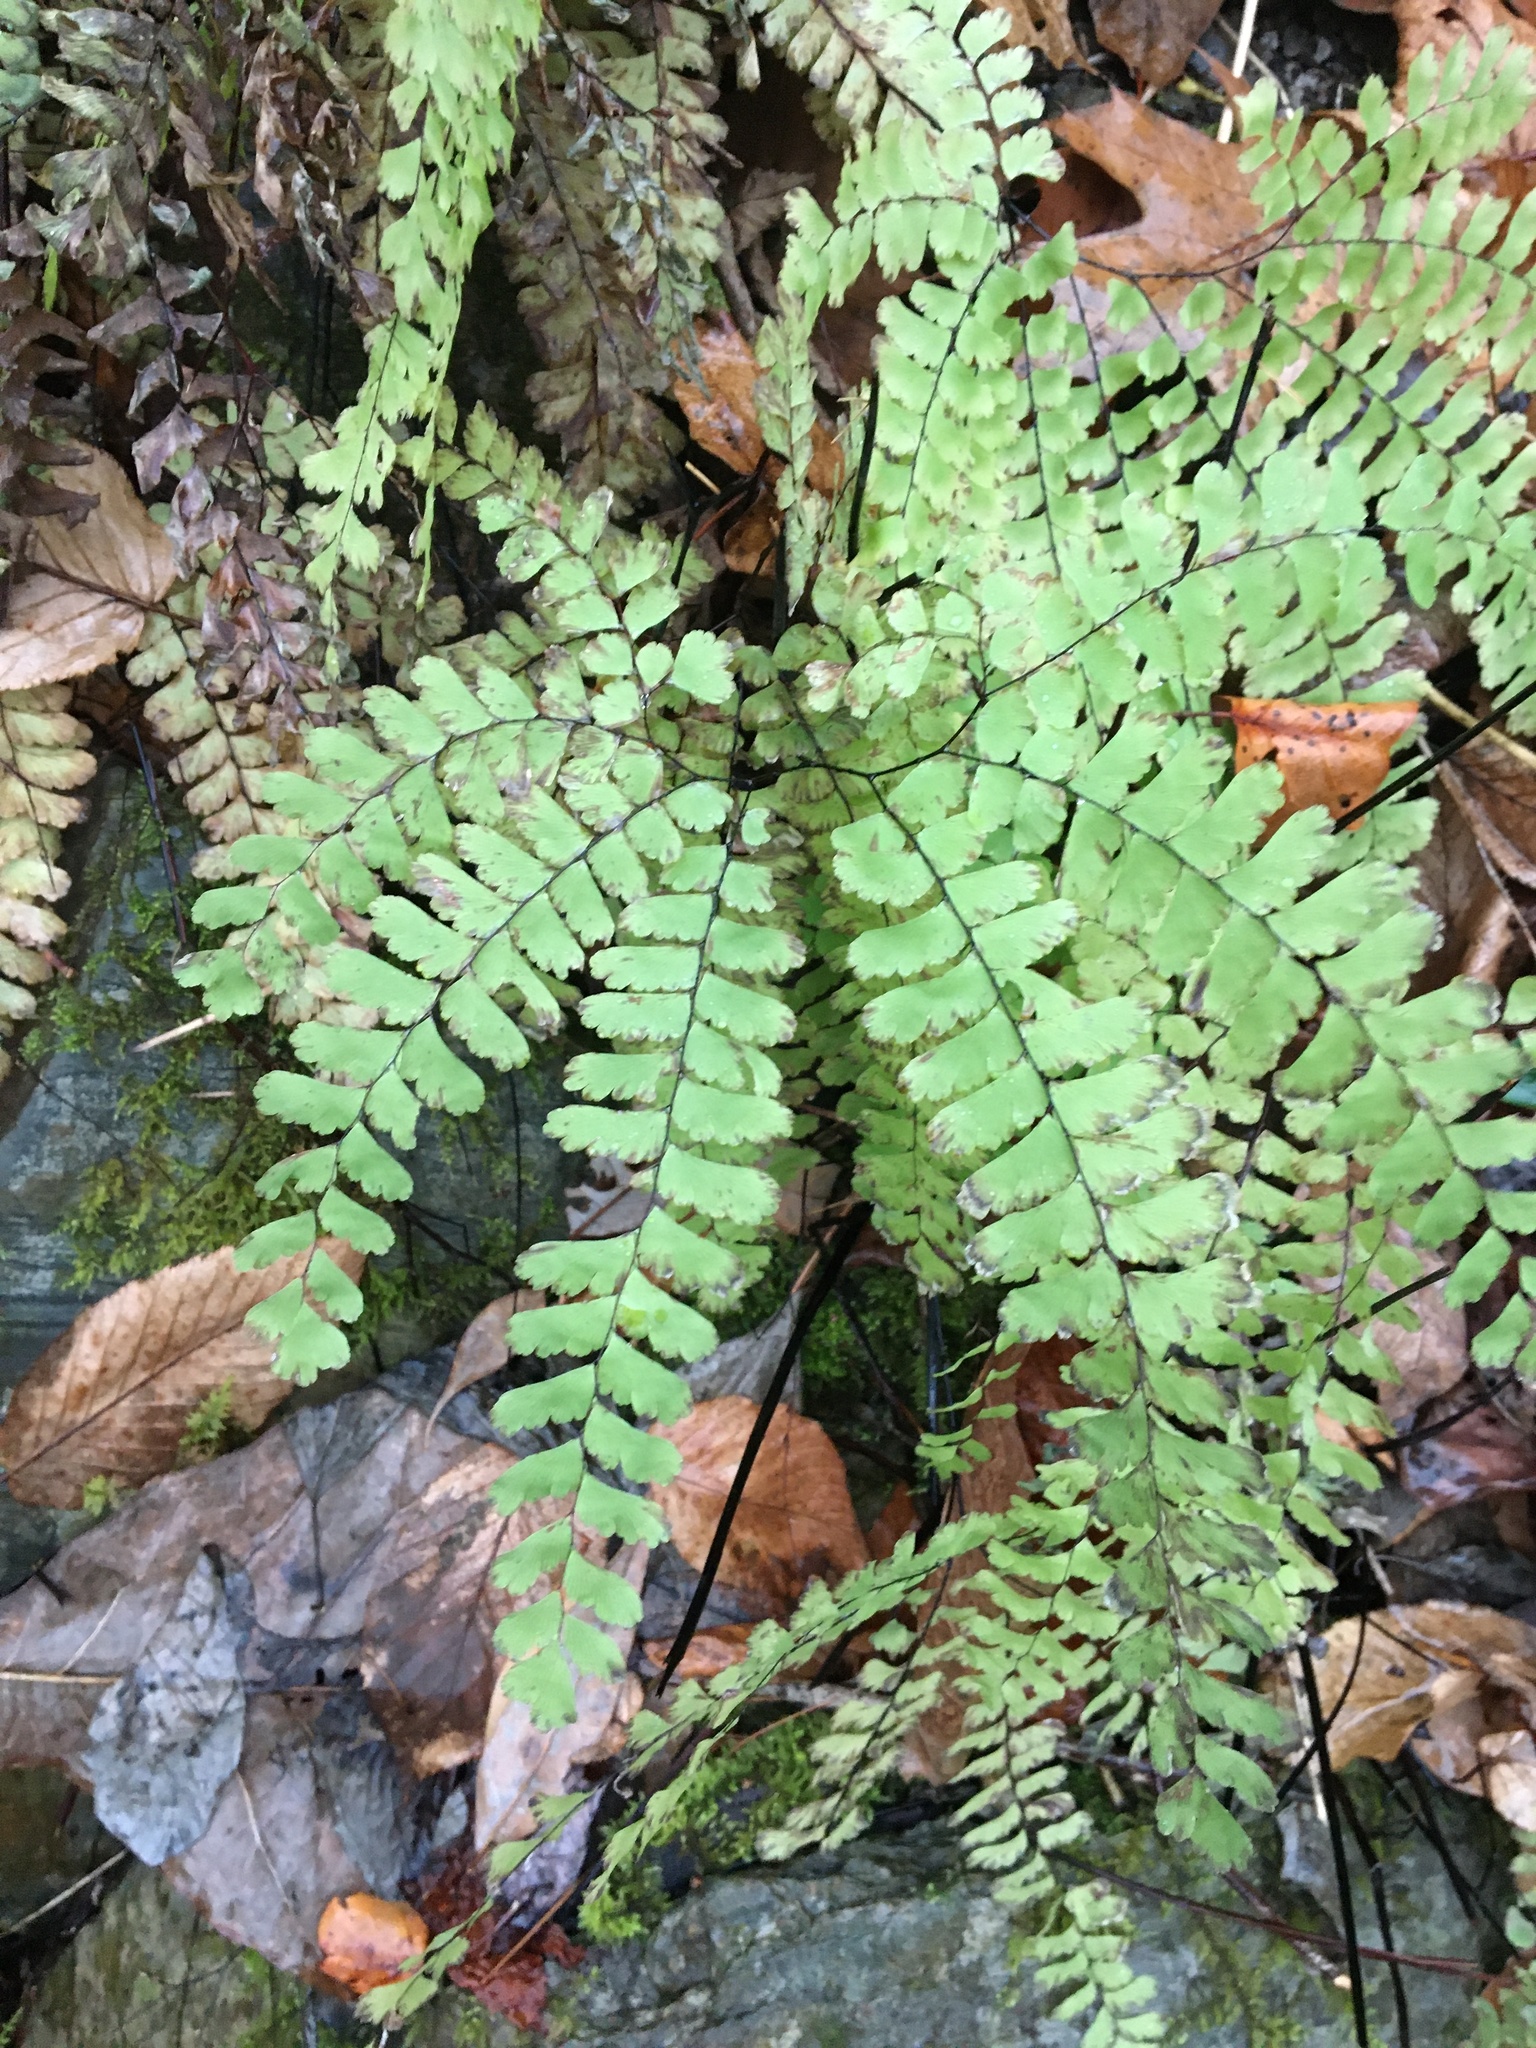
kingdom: Plantae
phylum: Tracheophyta
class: Polypodiopsida
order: Polypodiales
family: Pteridaceae
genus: Adiantum
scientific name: Adiantum pedatum
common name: Five-finger fern
